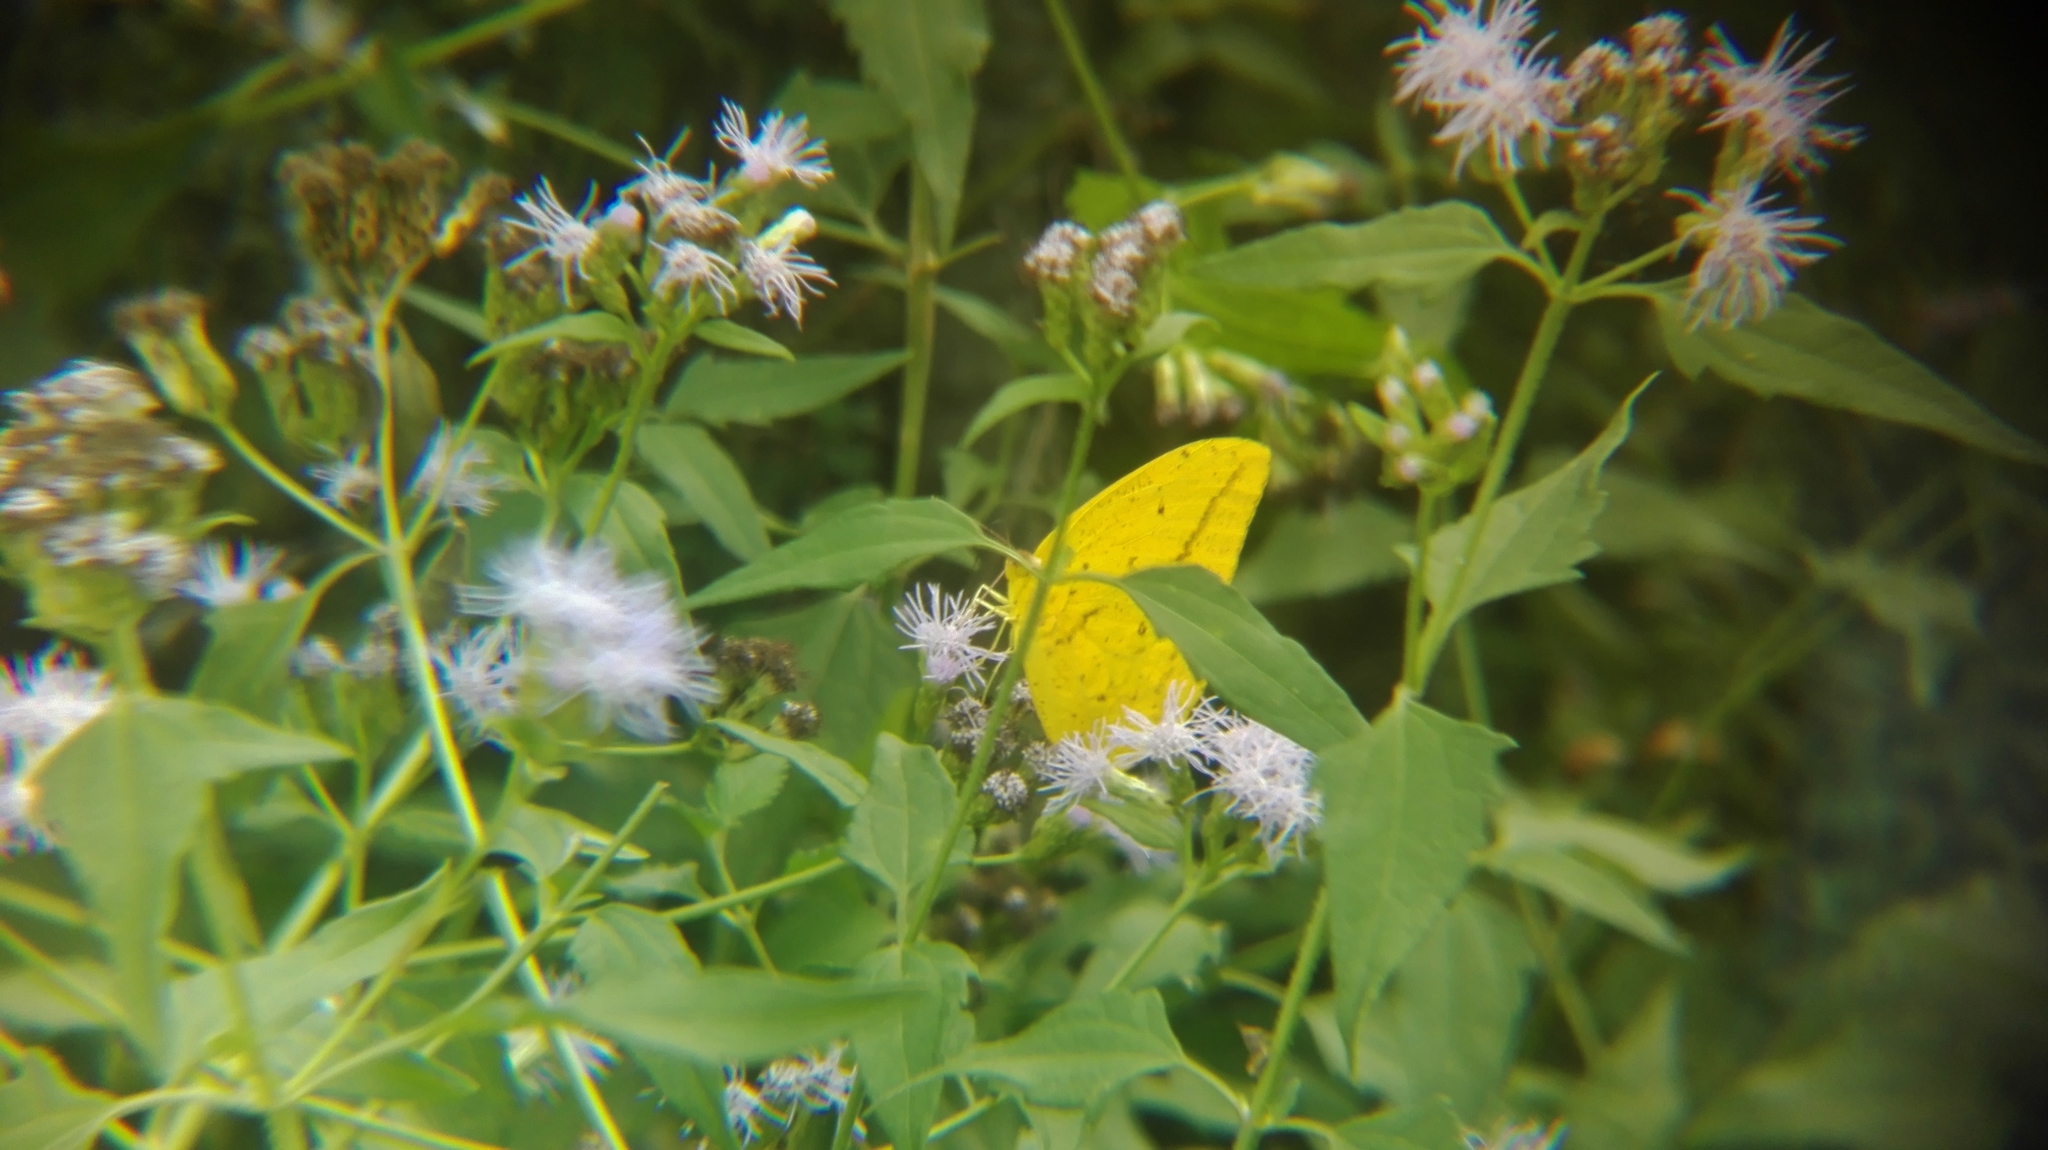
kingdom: Animalia
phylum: Arthropoda
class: Insecta
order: Lepidoptera
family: Pieridae
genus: Phoebis
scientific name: Phoebis agarithe
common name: Large orange sulphur
